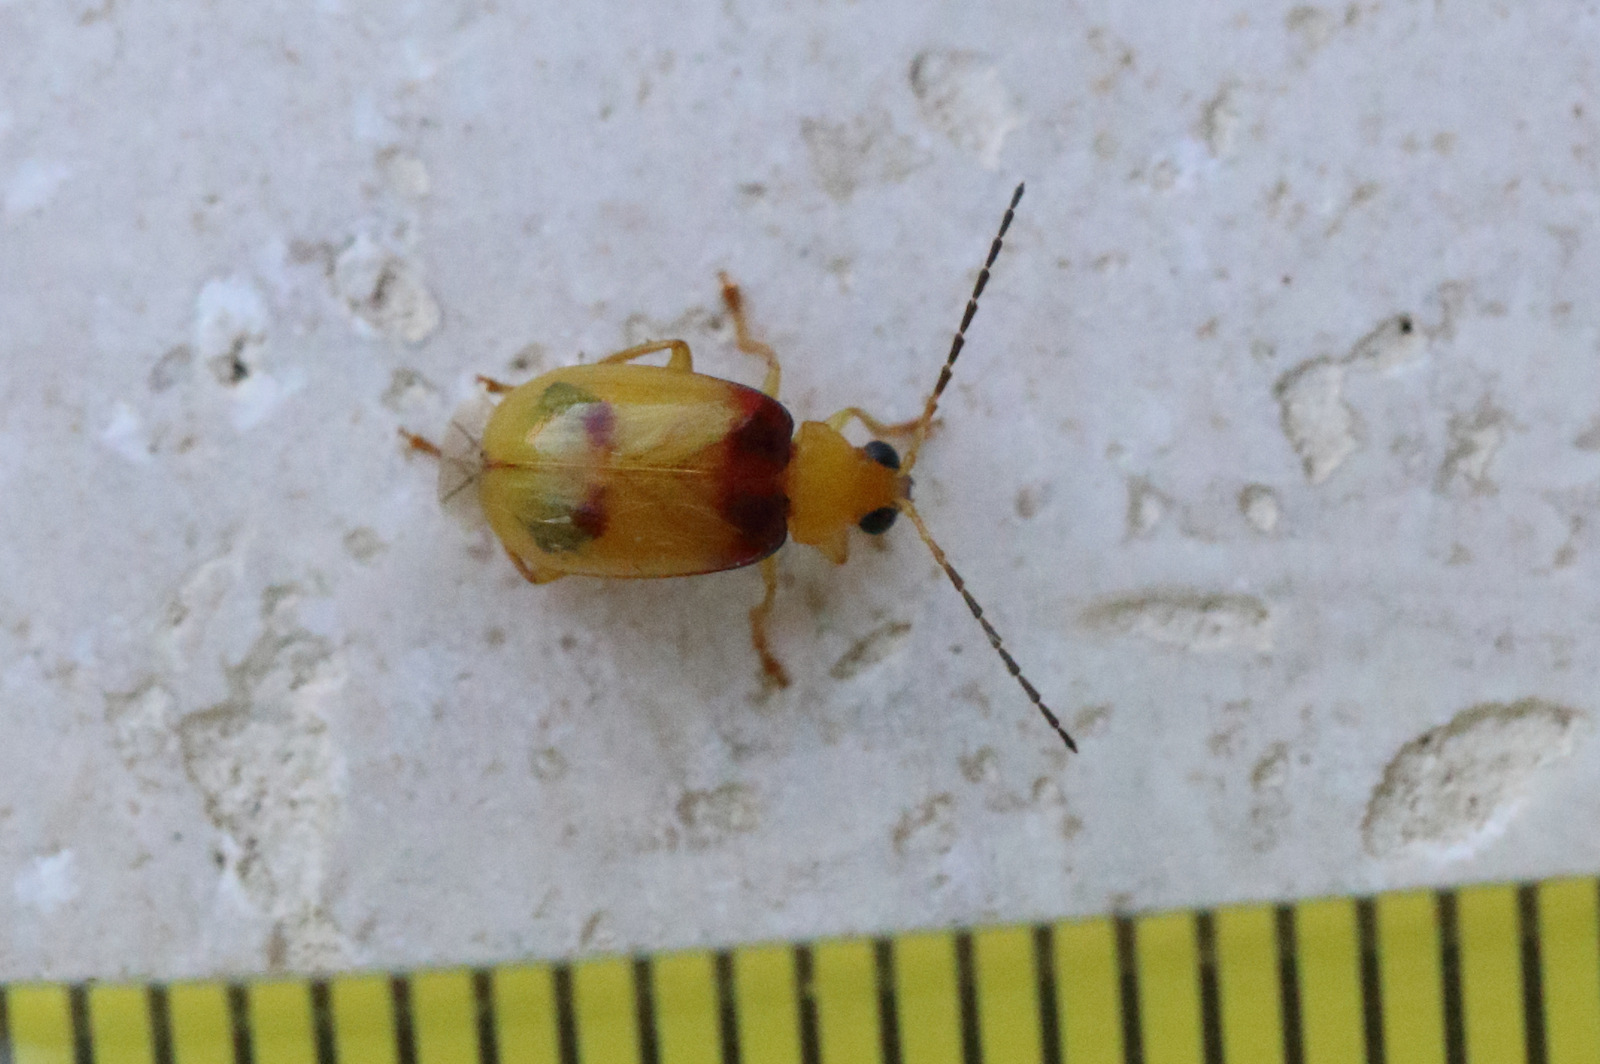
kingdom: Animalia
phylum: Arthropoda
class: Insecta
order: Coleoptera
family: Chrysomelidae
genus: Monolepta
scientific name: Monolepta
